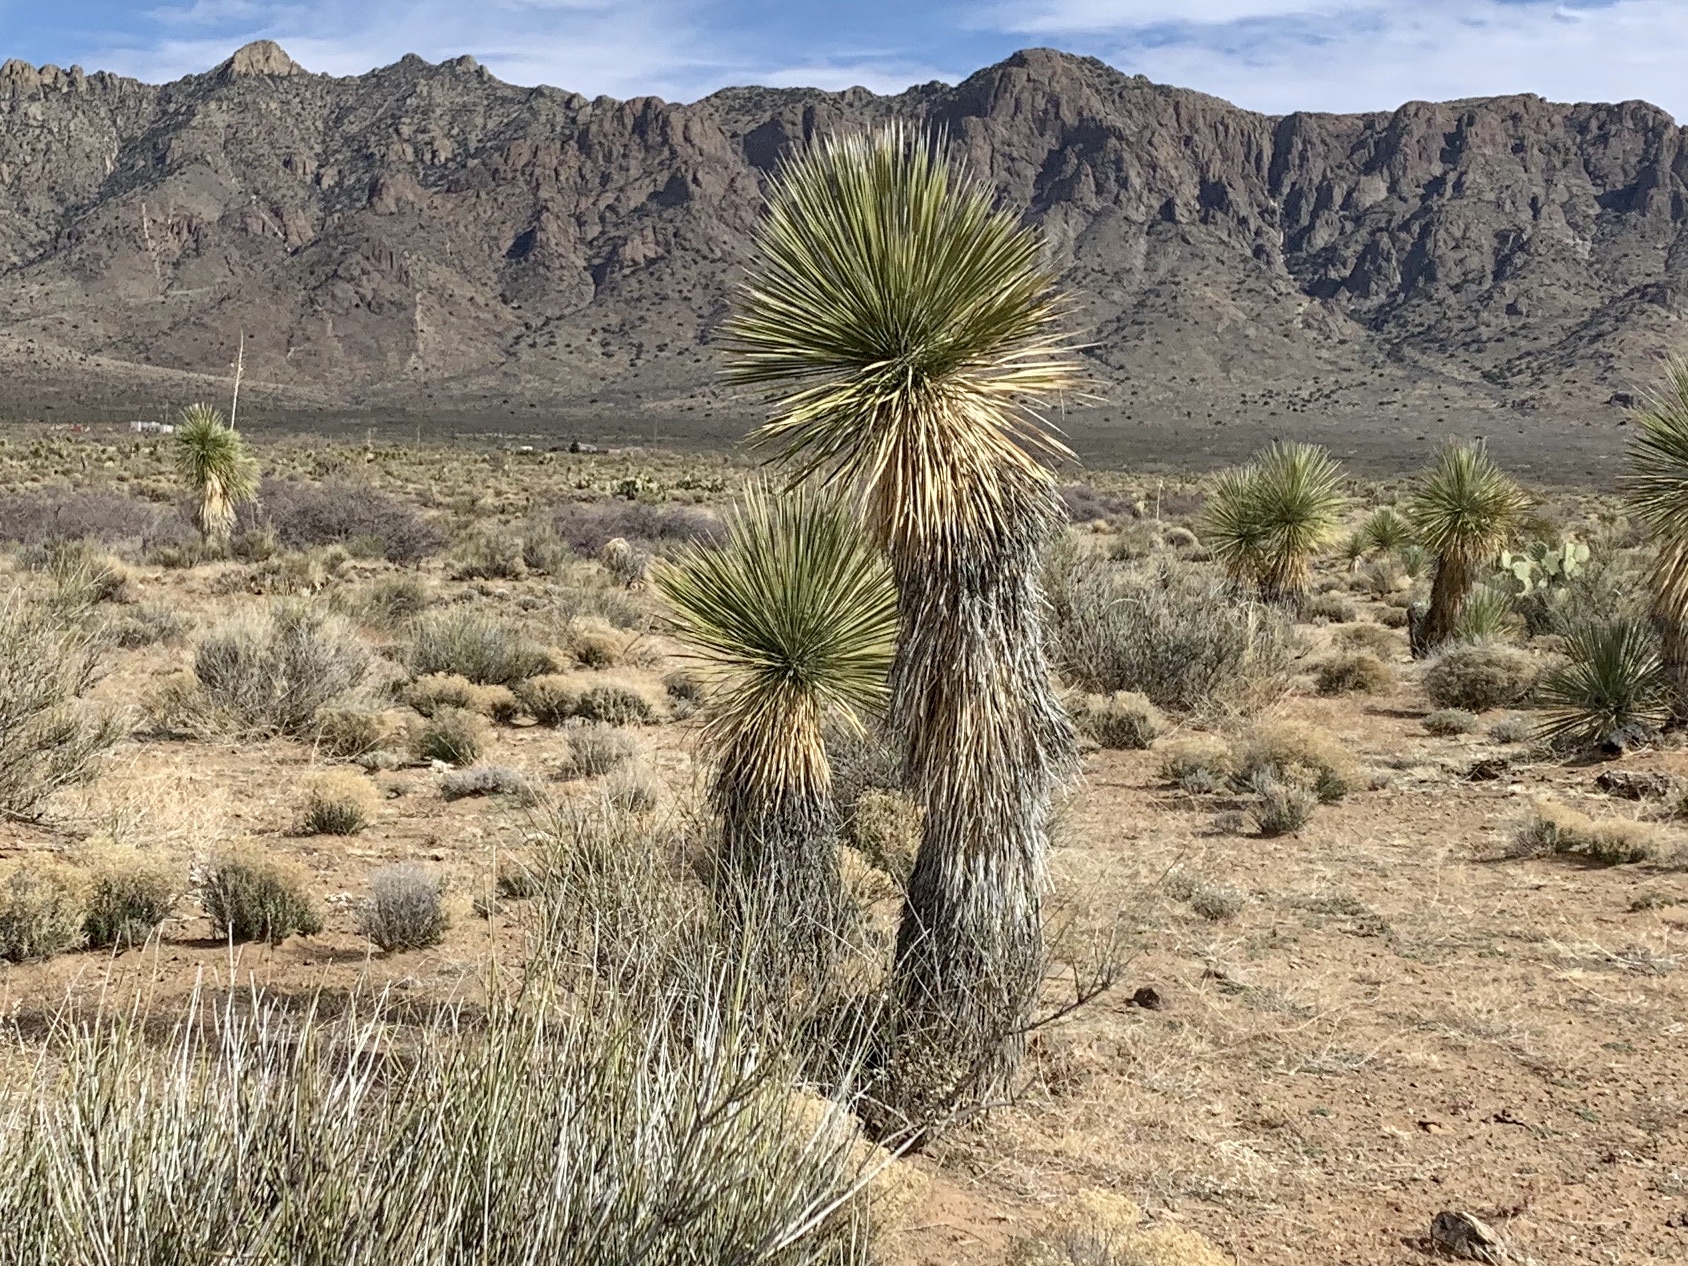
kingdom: Plantae
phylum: Tracheophyta
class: Liliopsida
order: Asparagales
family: Asparagaceae
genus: Yucca
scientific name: Yucca elata
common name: Palmella
